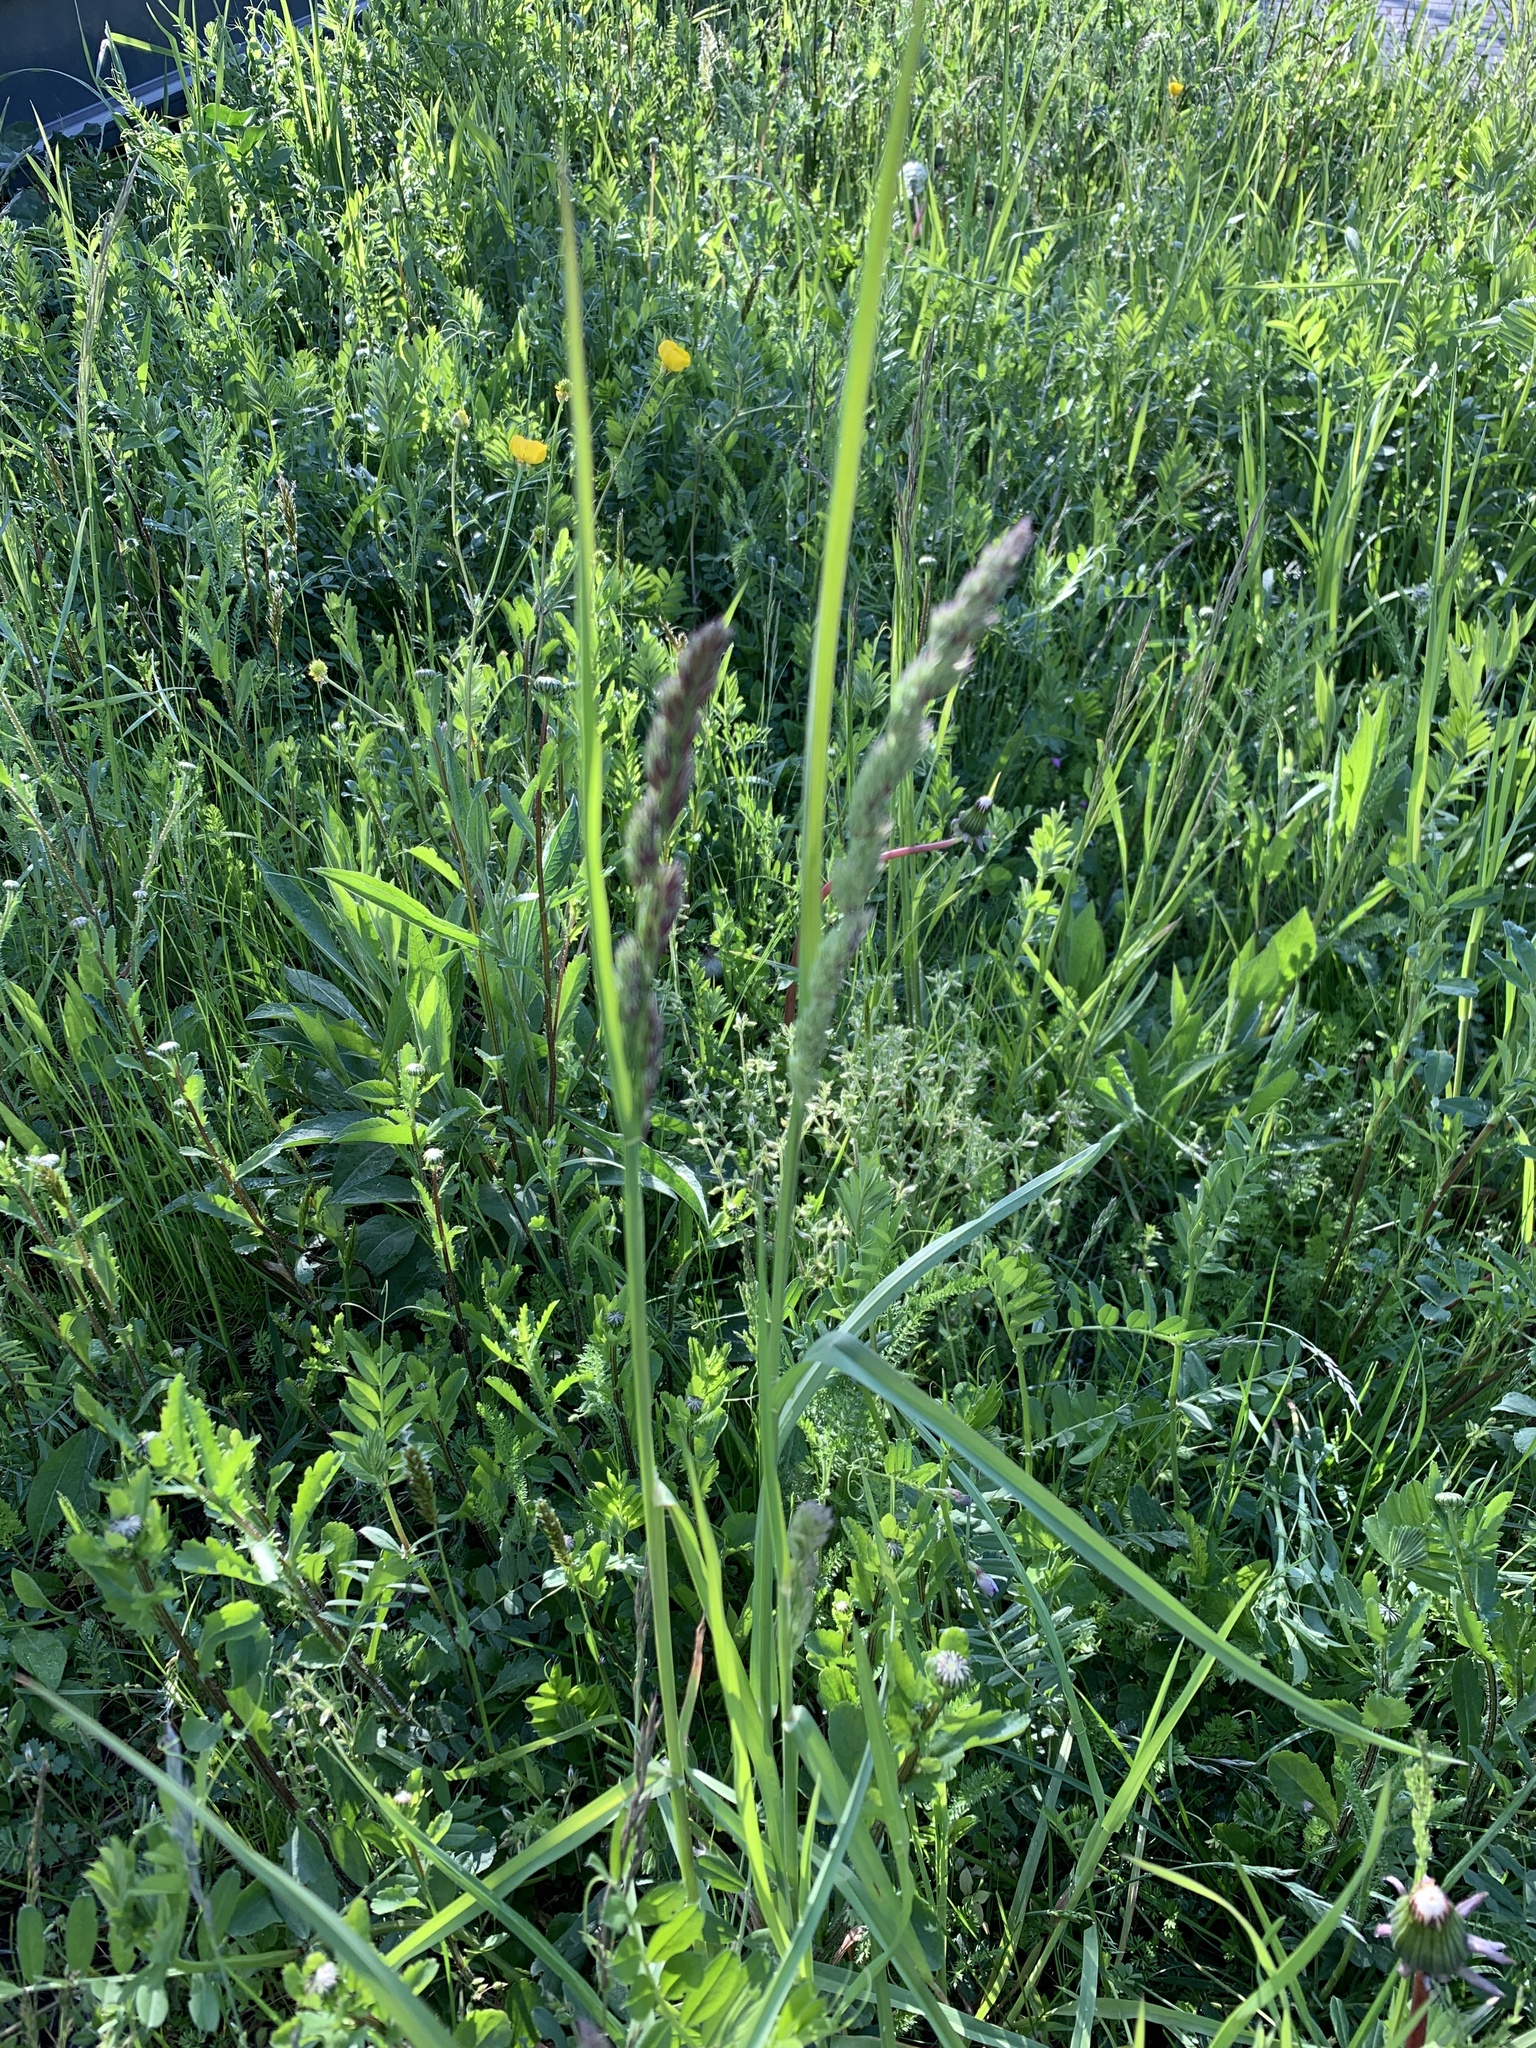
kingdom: Plantae
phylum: Tracheophyta
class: Liliopsida
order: Poales
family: Poaceae
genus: Dactylis
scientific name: Dactylis glomerata
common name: Orchardgrass
